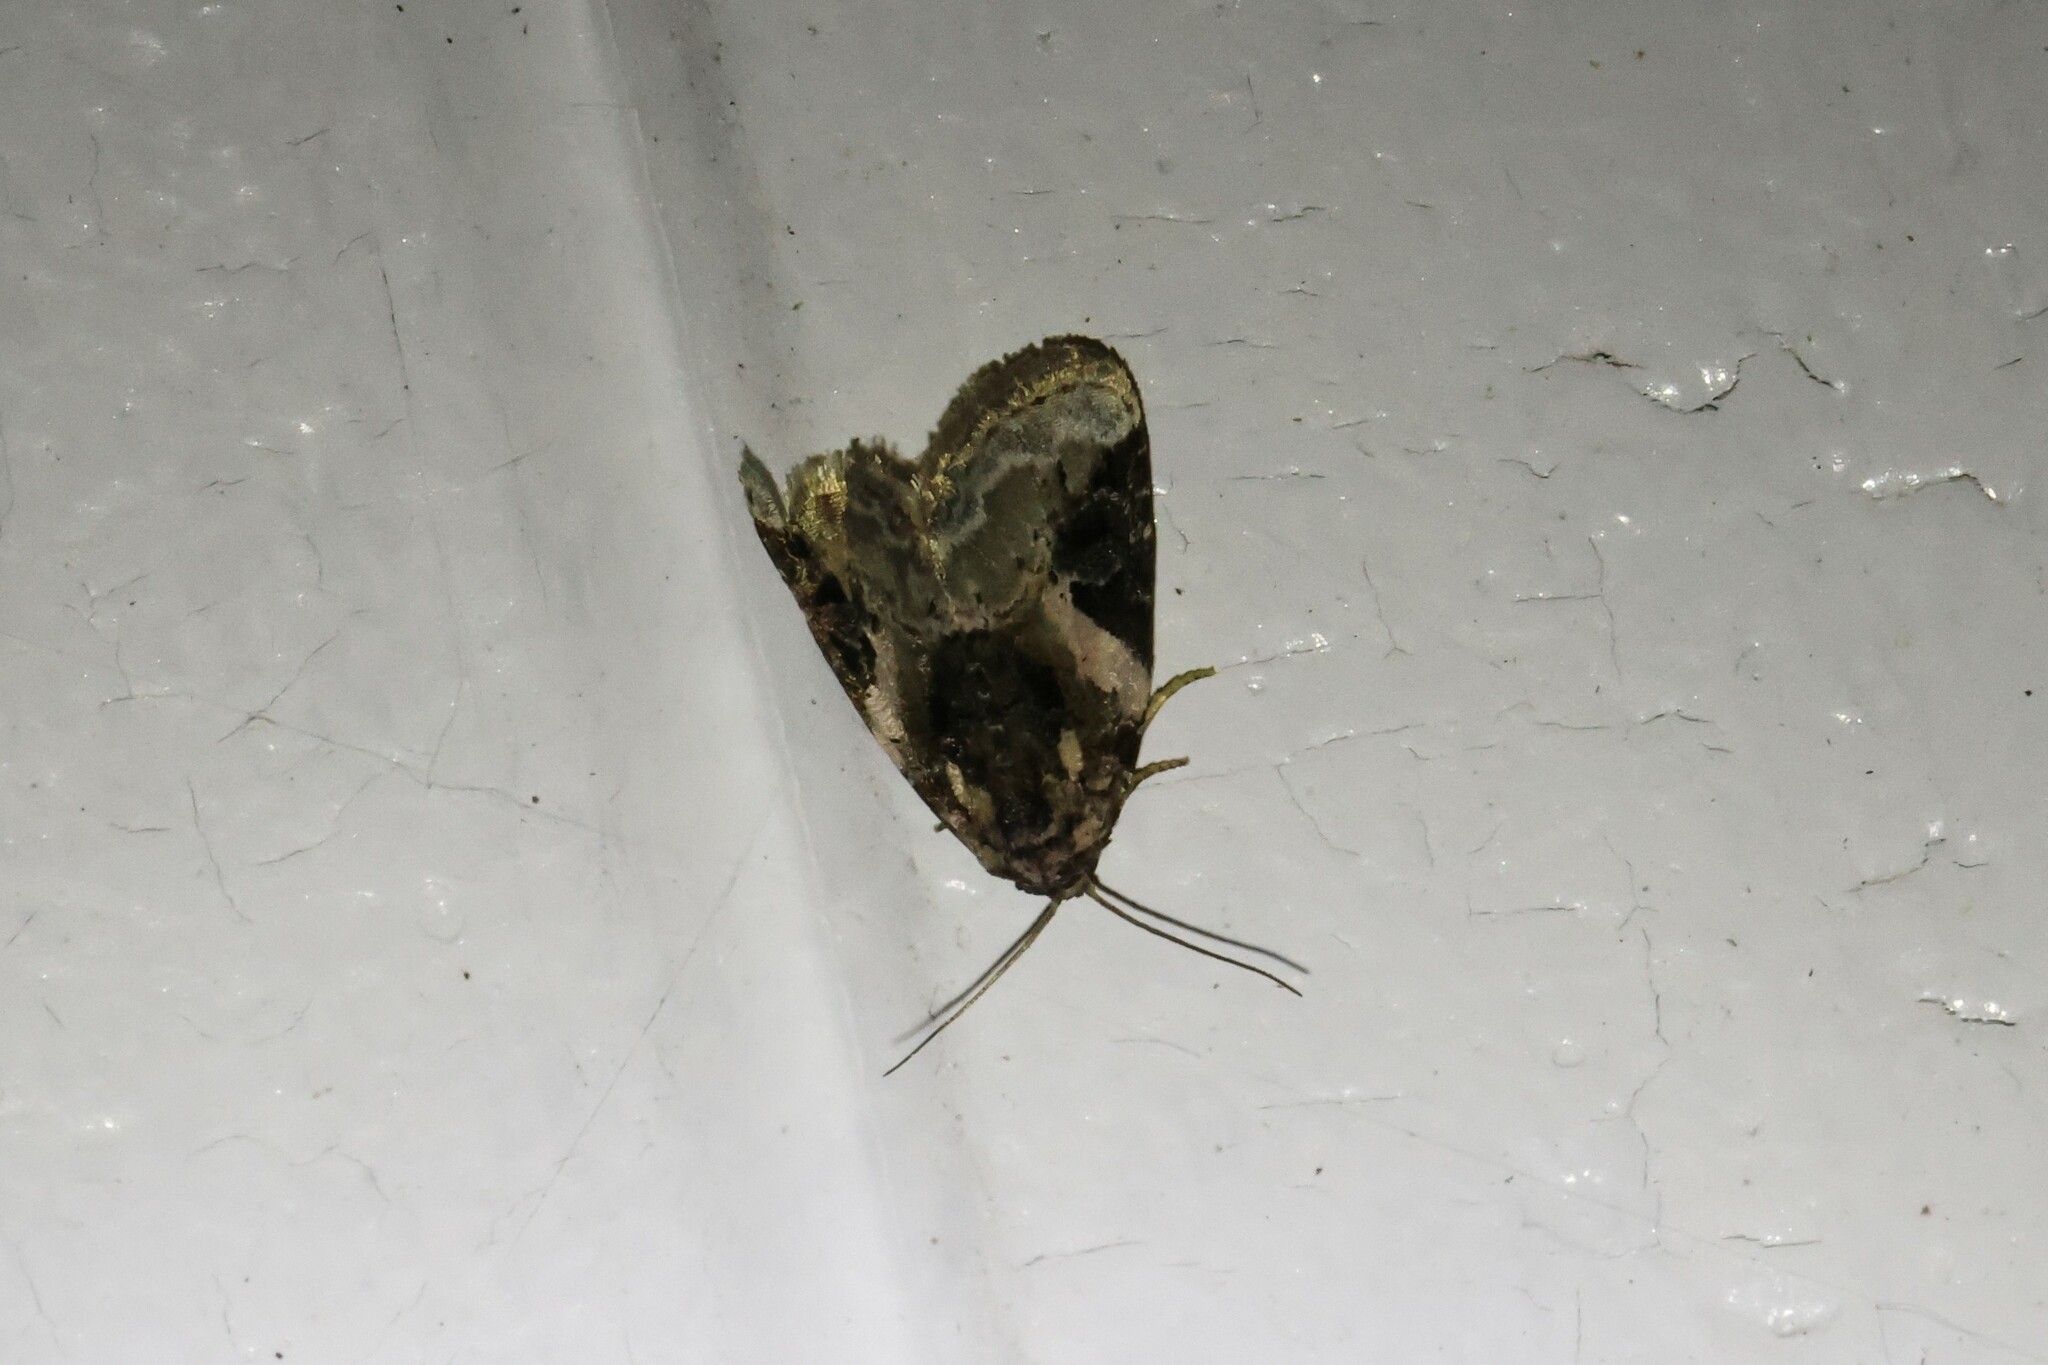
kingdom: Animalia
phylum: Arthropoda
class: Insecta
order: Lepidoptera
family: Noctuidae
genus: Pseudeustrotia
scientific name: Pseudeustrotia carneola
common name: Pink-barred lithacodia moth
